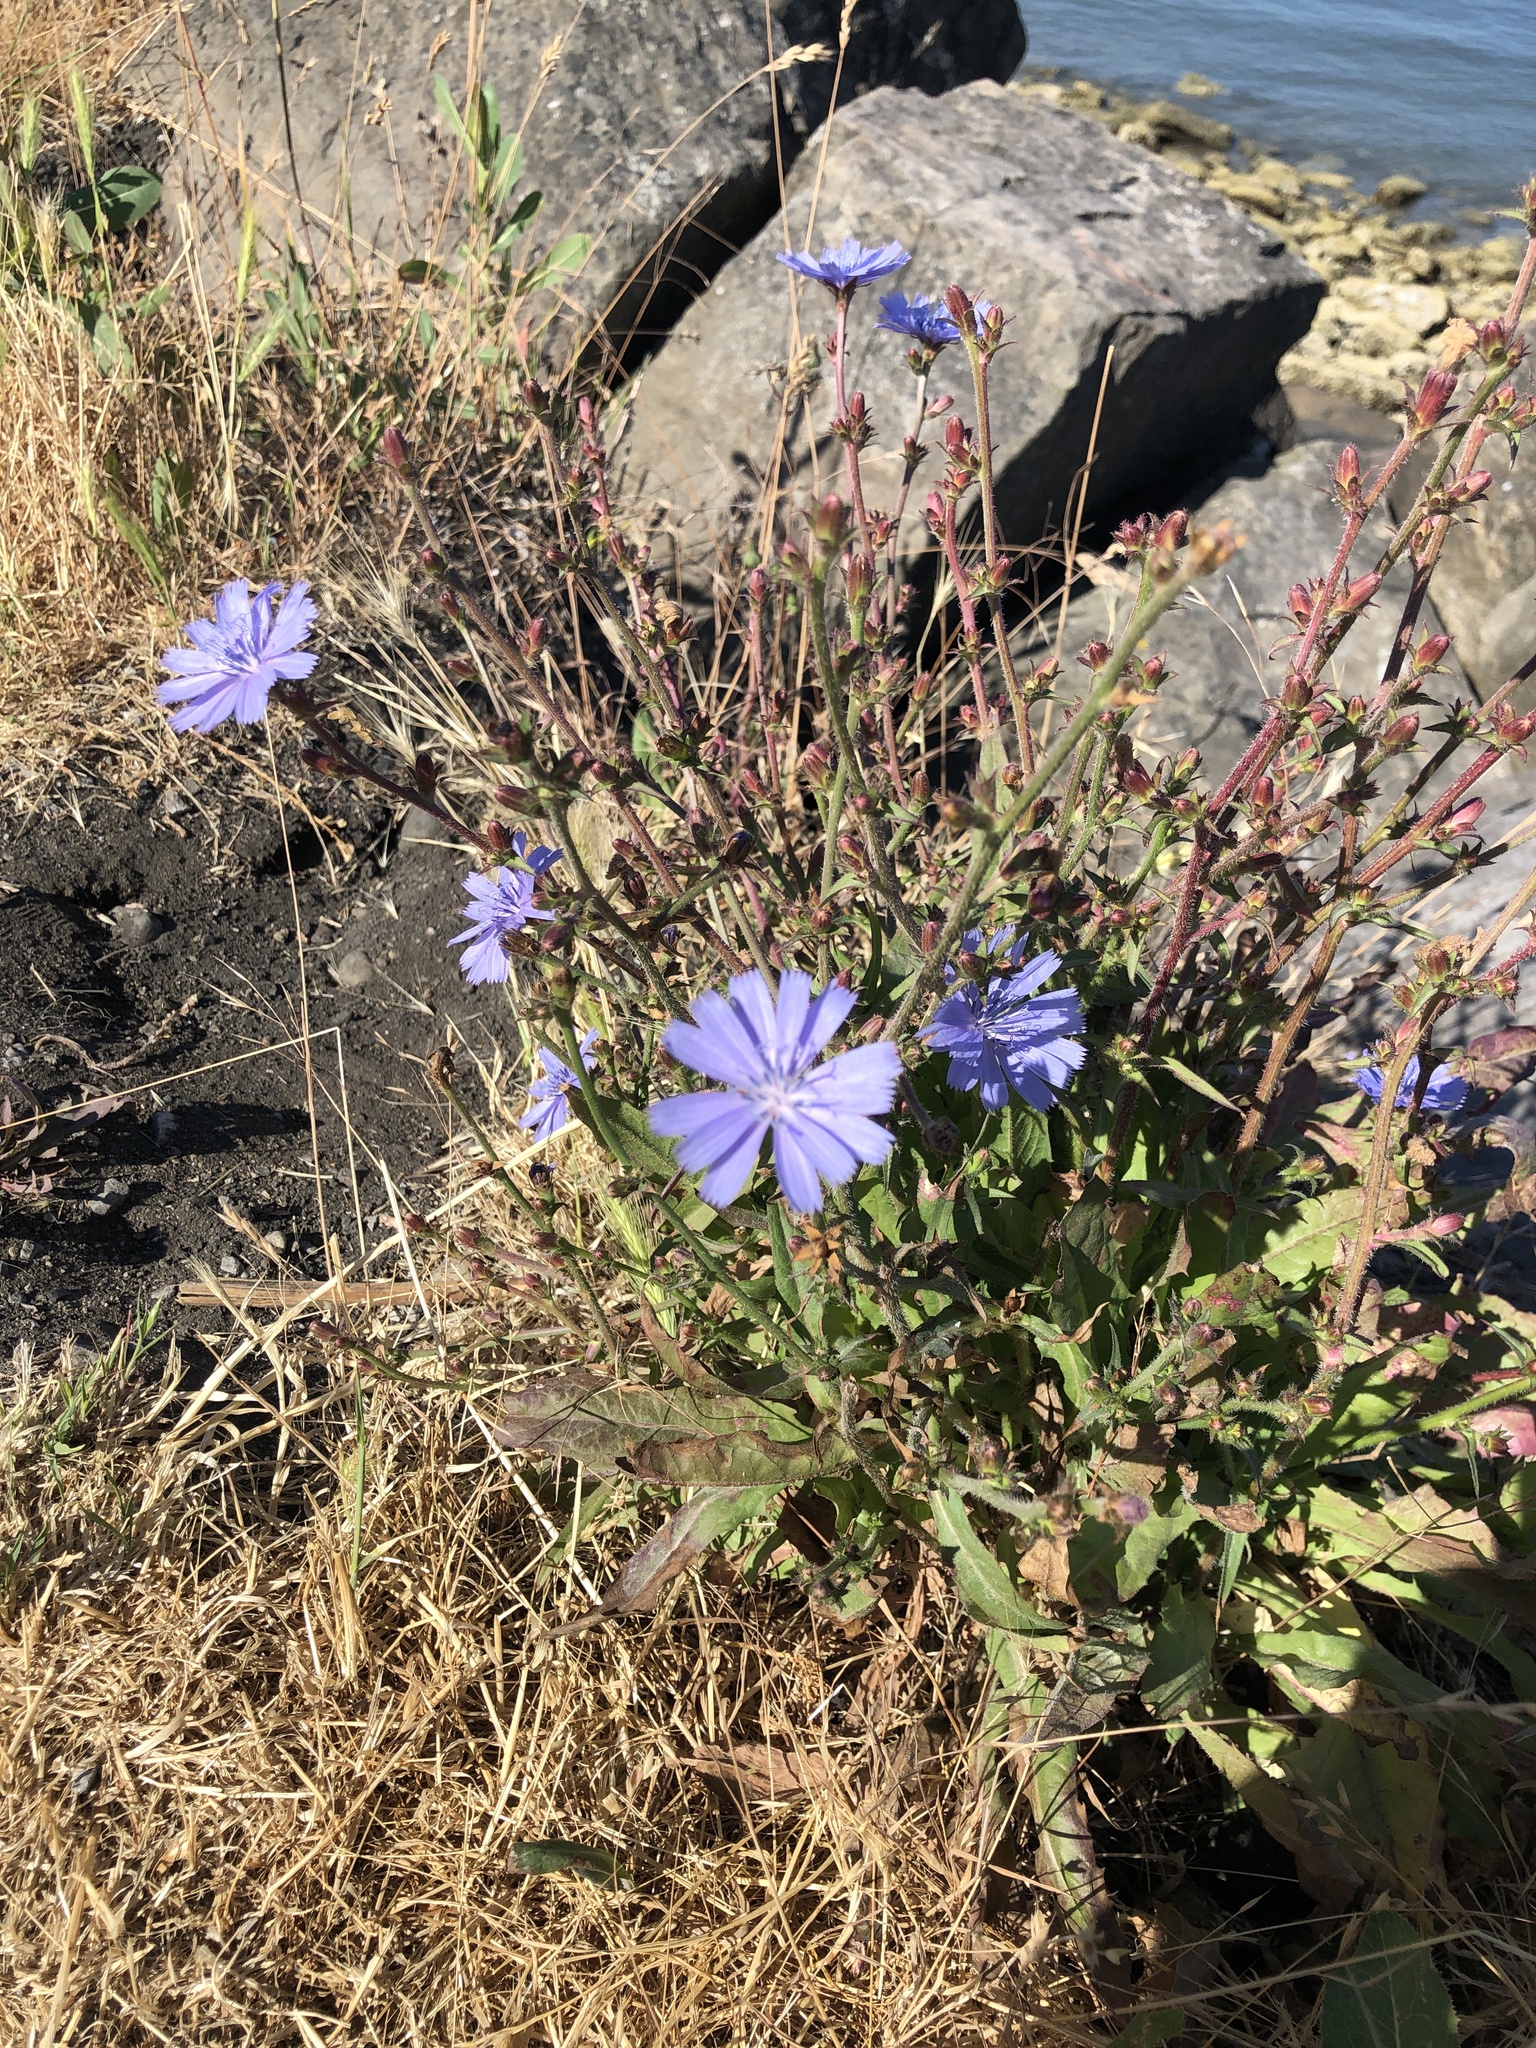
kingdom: Plantae
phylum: Tracheophyta
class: Magnoliopsida
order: Asterales
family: Asteraceae
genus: Cichorium
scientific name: Cichorium intybus
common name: Chicory
